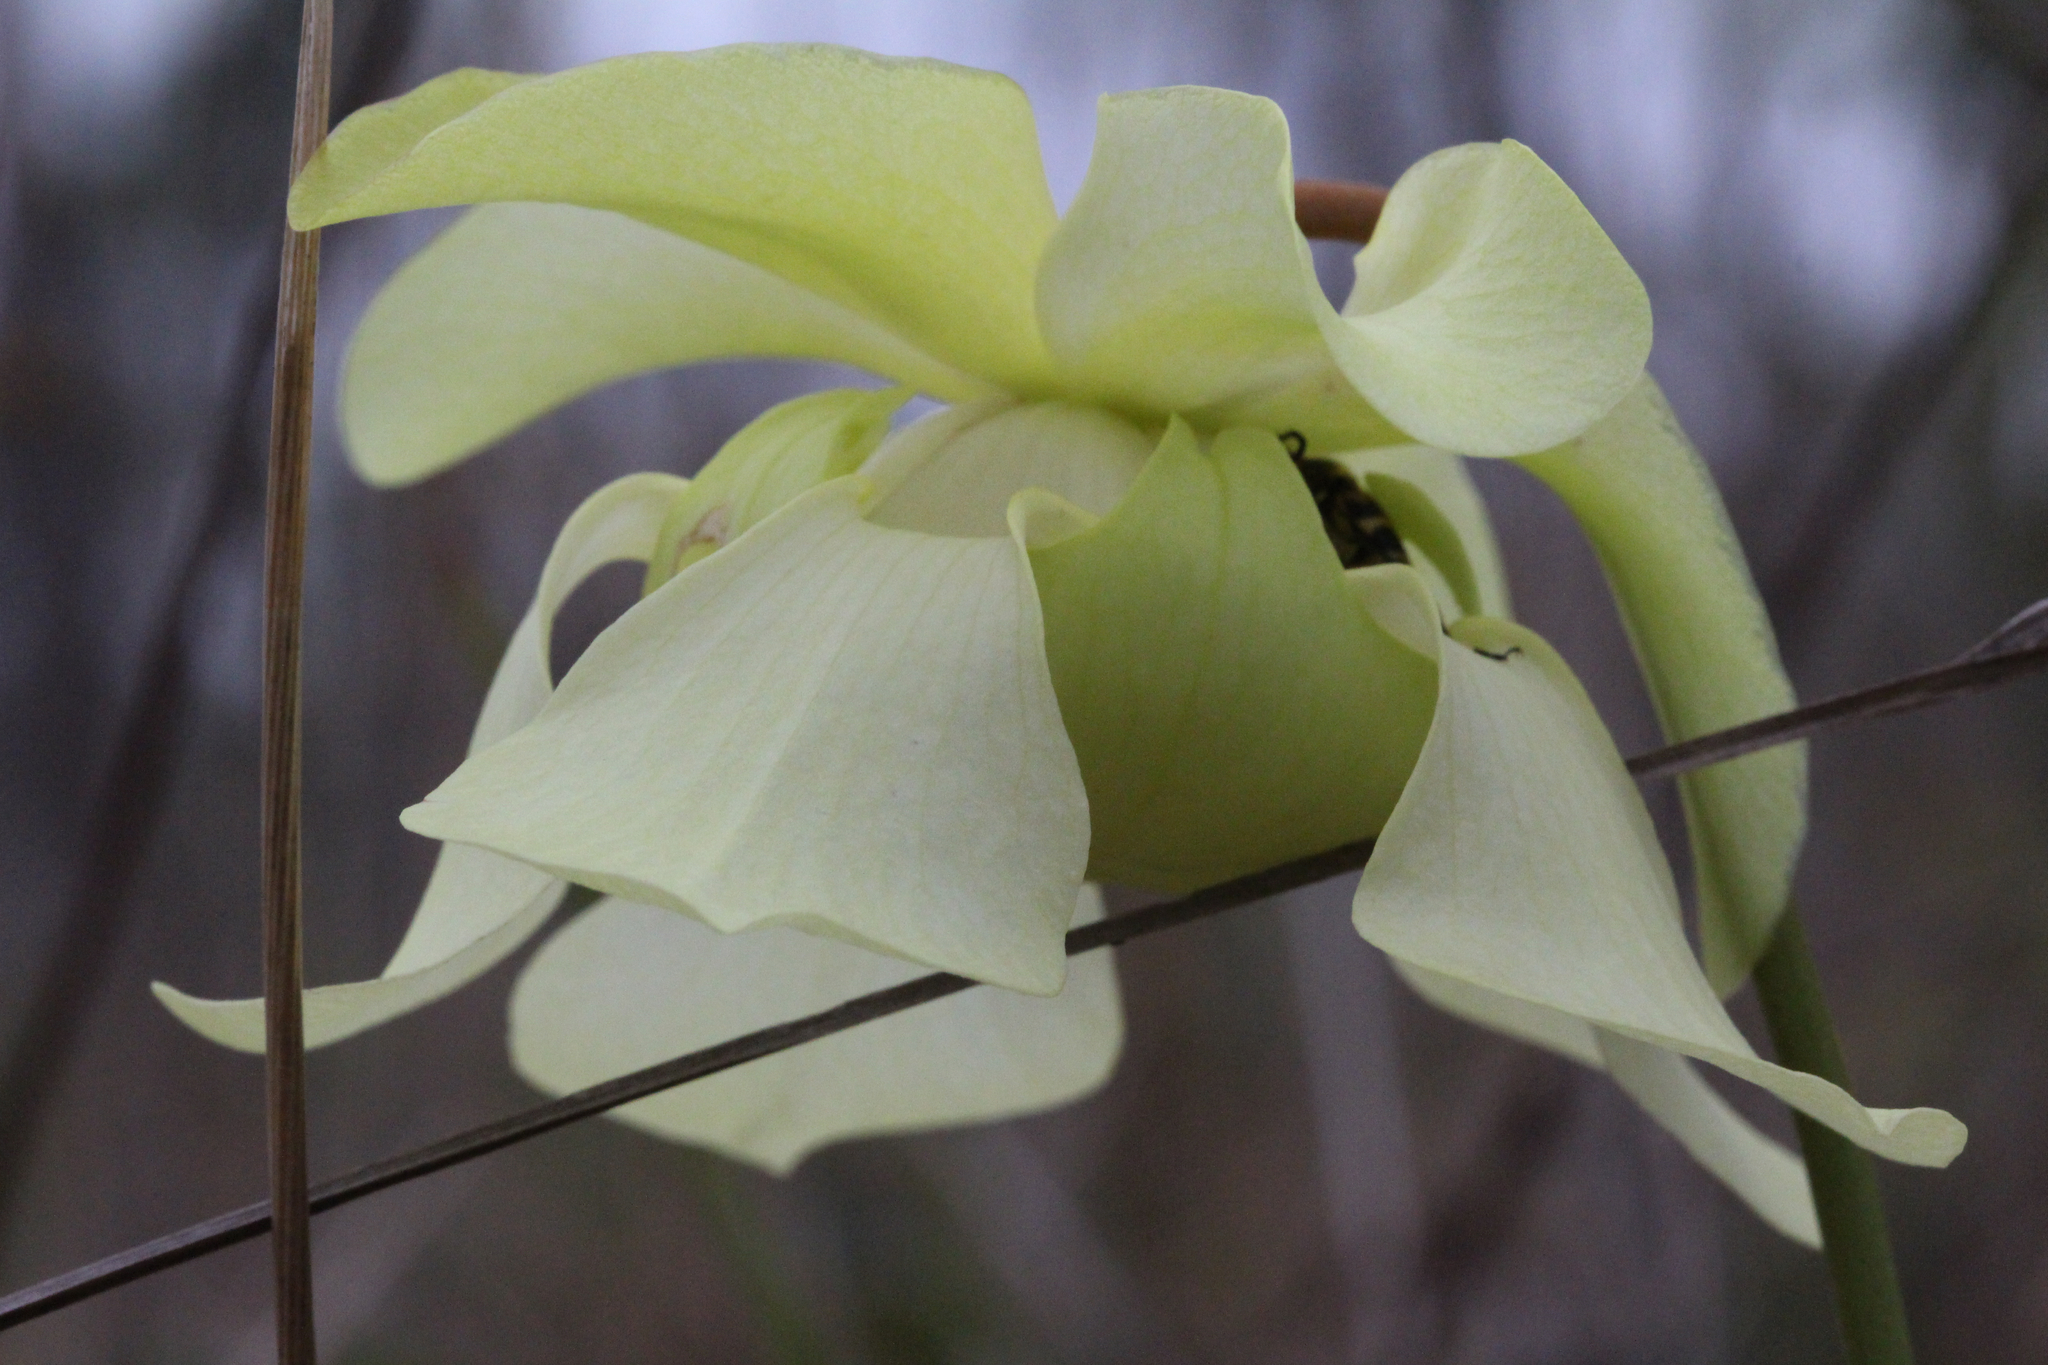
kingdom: Plantae
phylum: Tracheophyta
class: Magnoliopsida
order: Ericales
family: Sarraceniaceae
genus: Sarracenia
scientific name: Sarracenia alata
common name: Yellow trumpets
